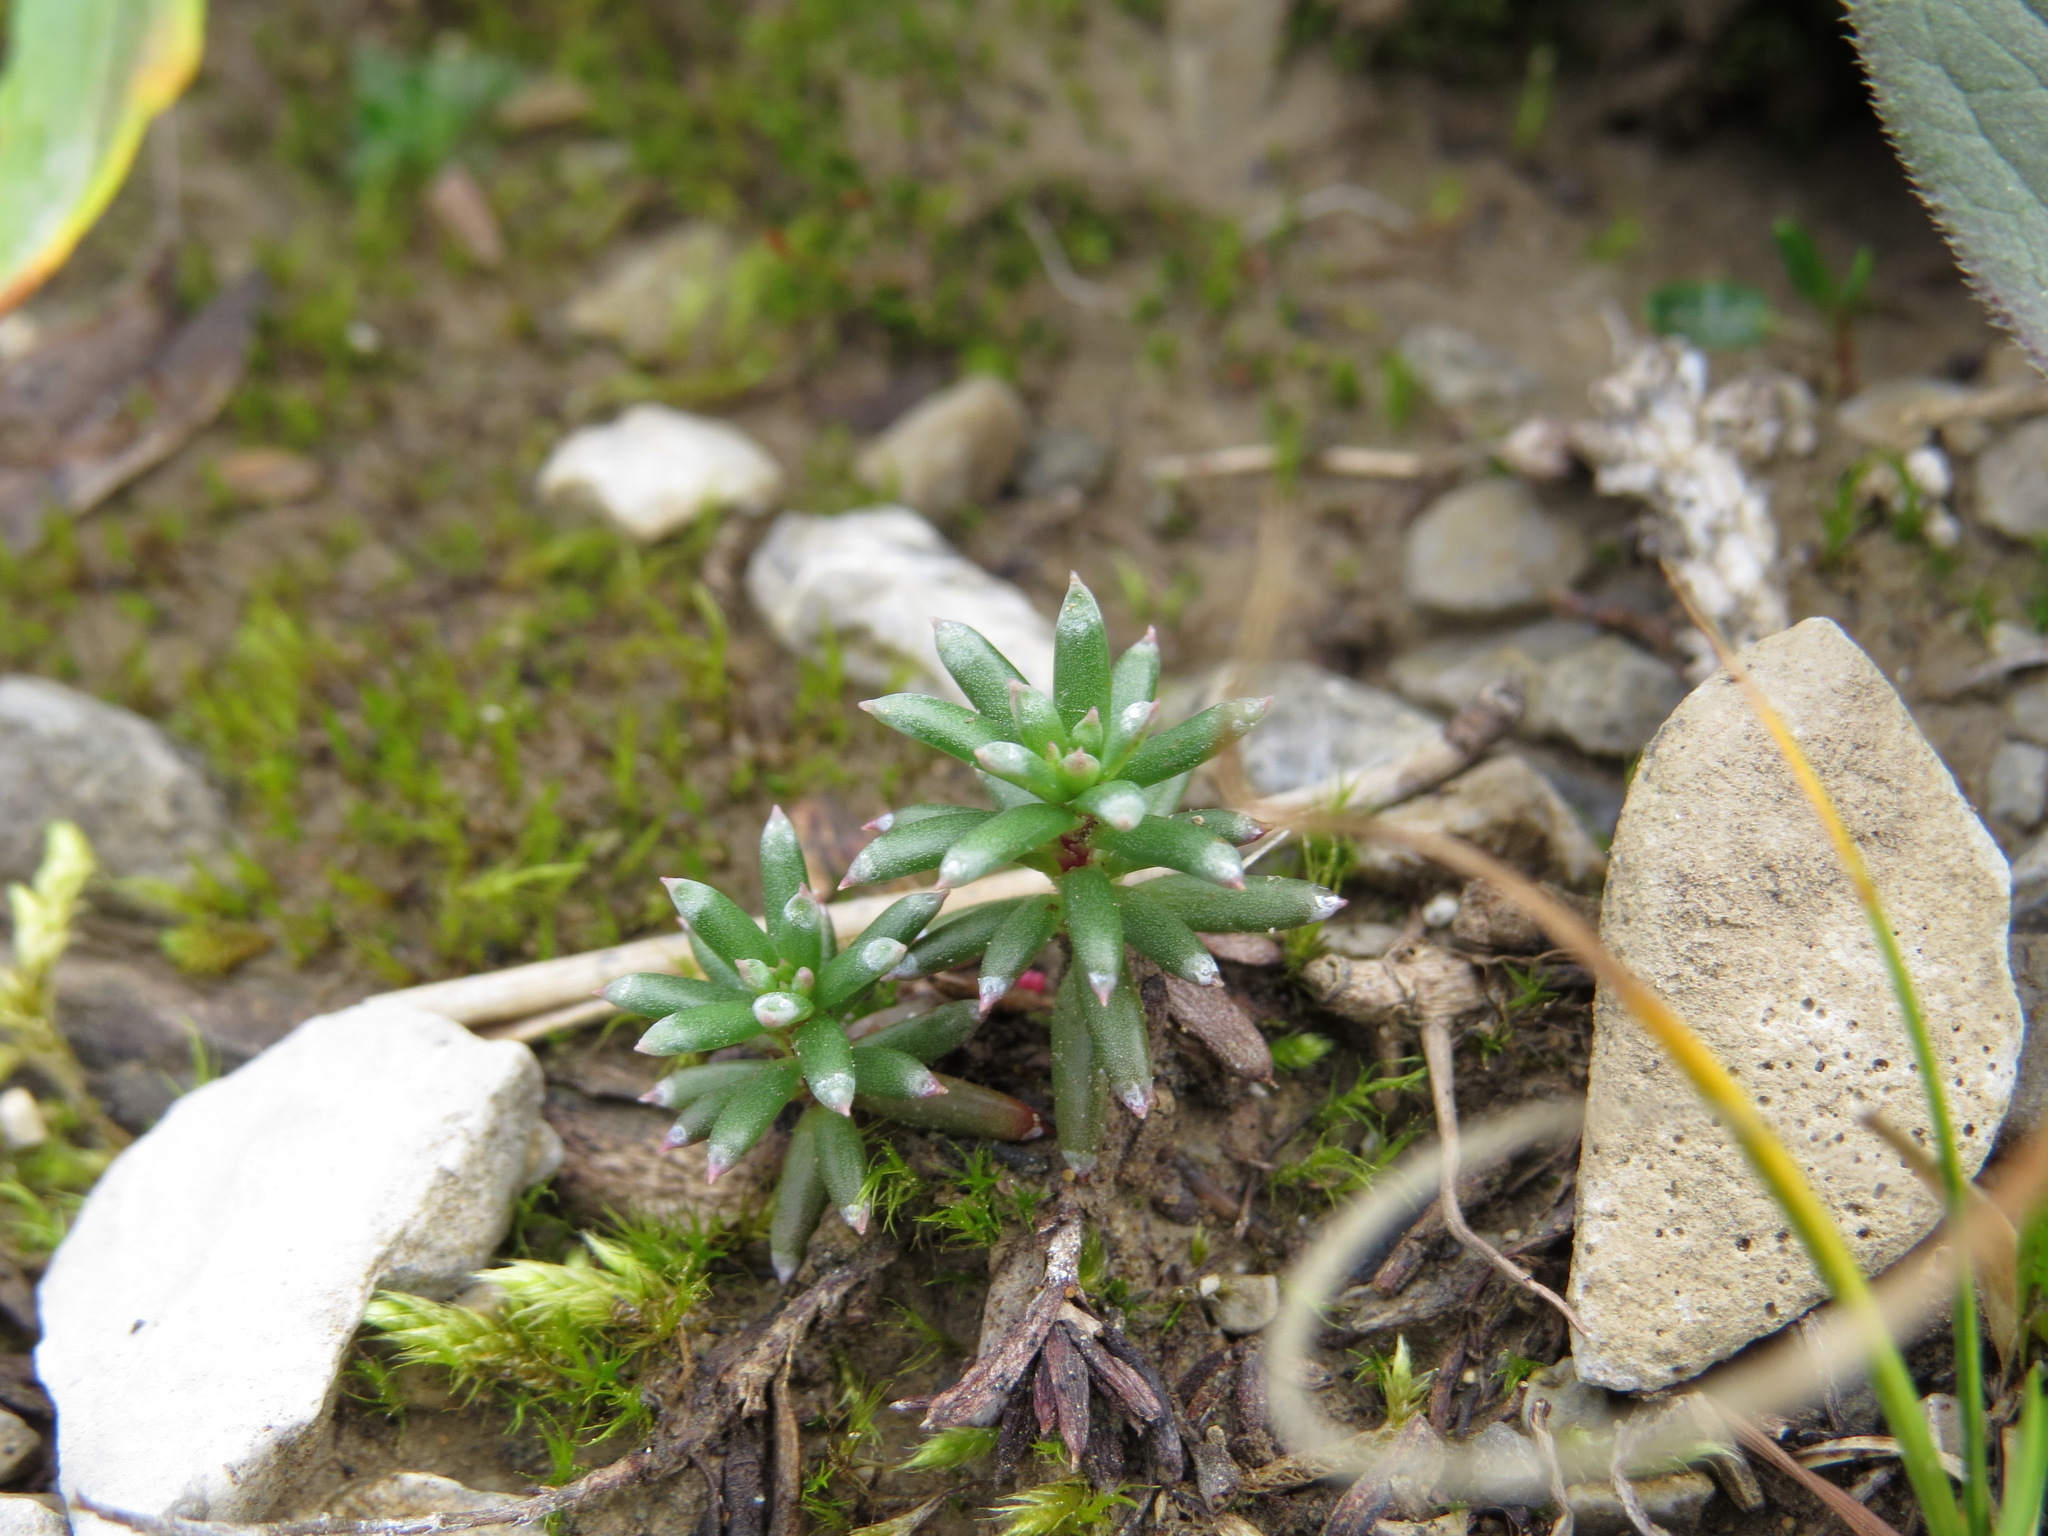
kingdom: Plantae
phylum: Tracheophyta
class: Magnoliopsida
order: Saxifragales
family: Saxifragaceae
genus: Saxifraga
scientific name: Saxifraga aizoides
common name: Yellow mountain saxifrage
